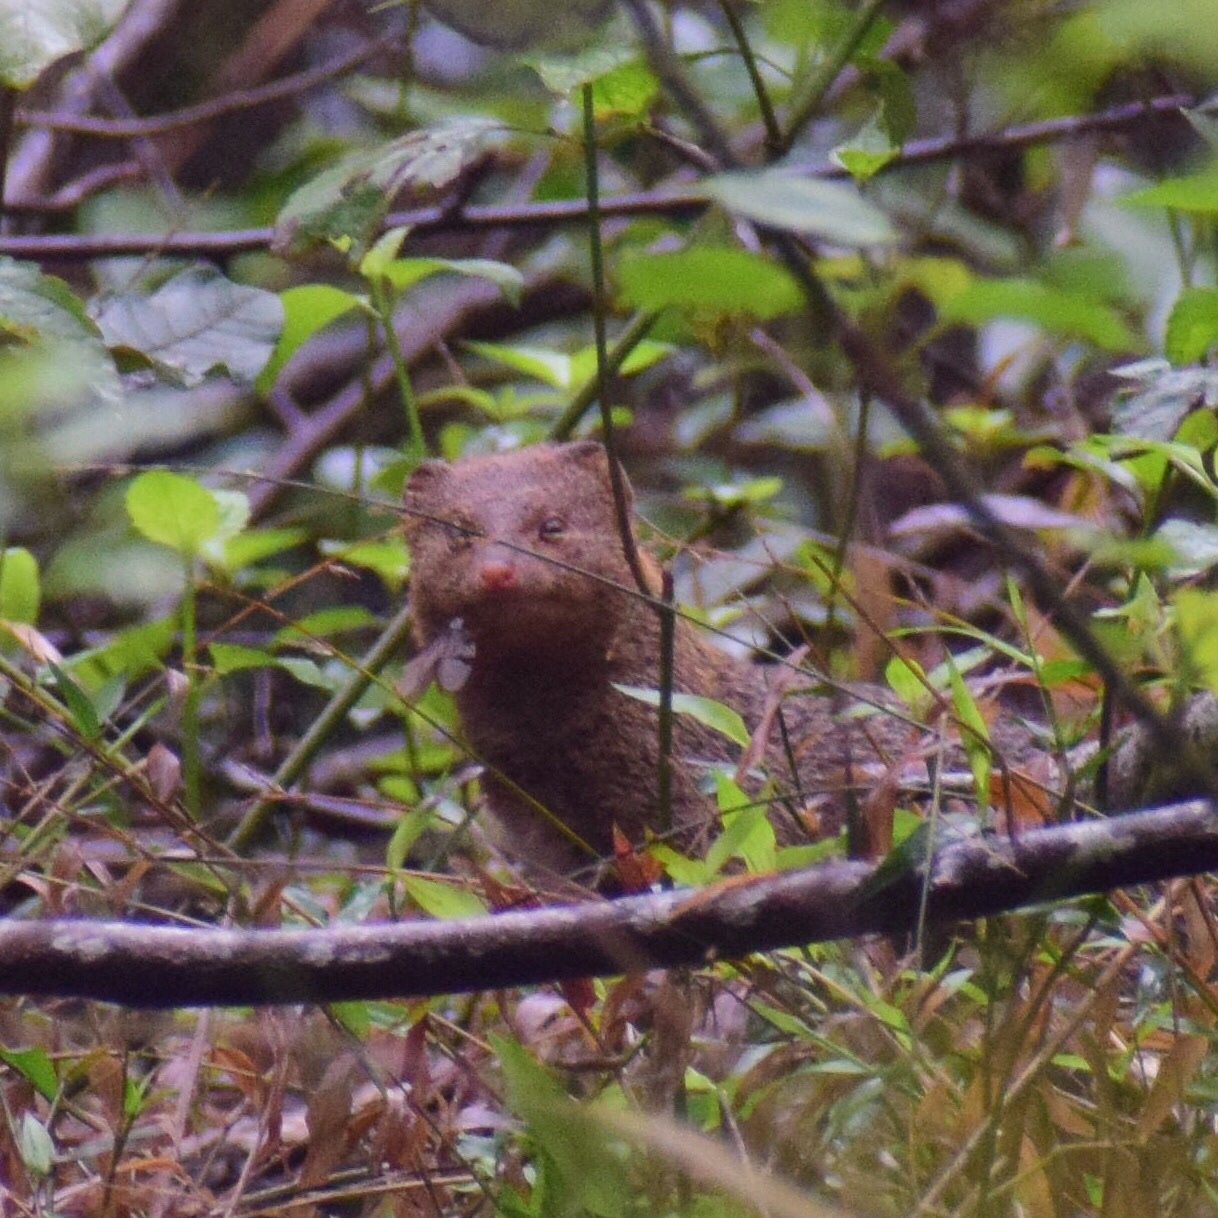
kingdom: Animalia
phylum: Chordata
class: Mammalia
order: Carnivora
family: Herpestidae
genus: Galerella
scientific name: Galerella sanguinea
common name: Slender mongoose
